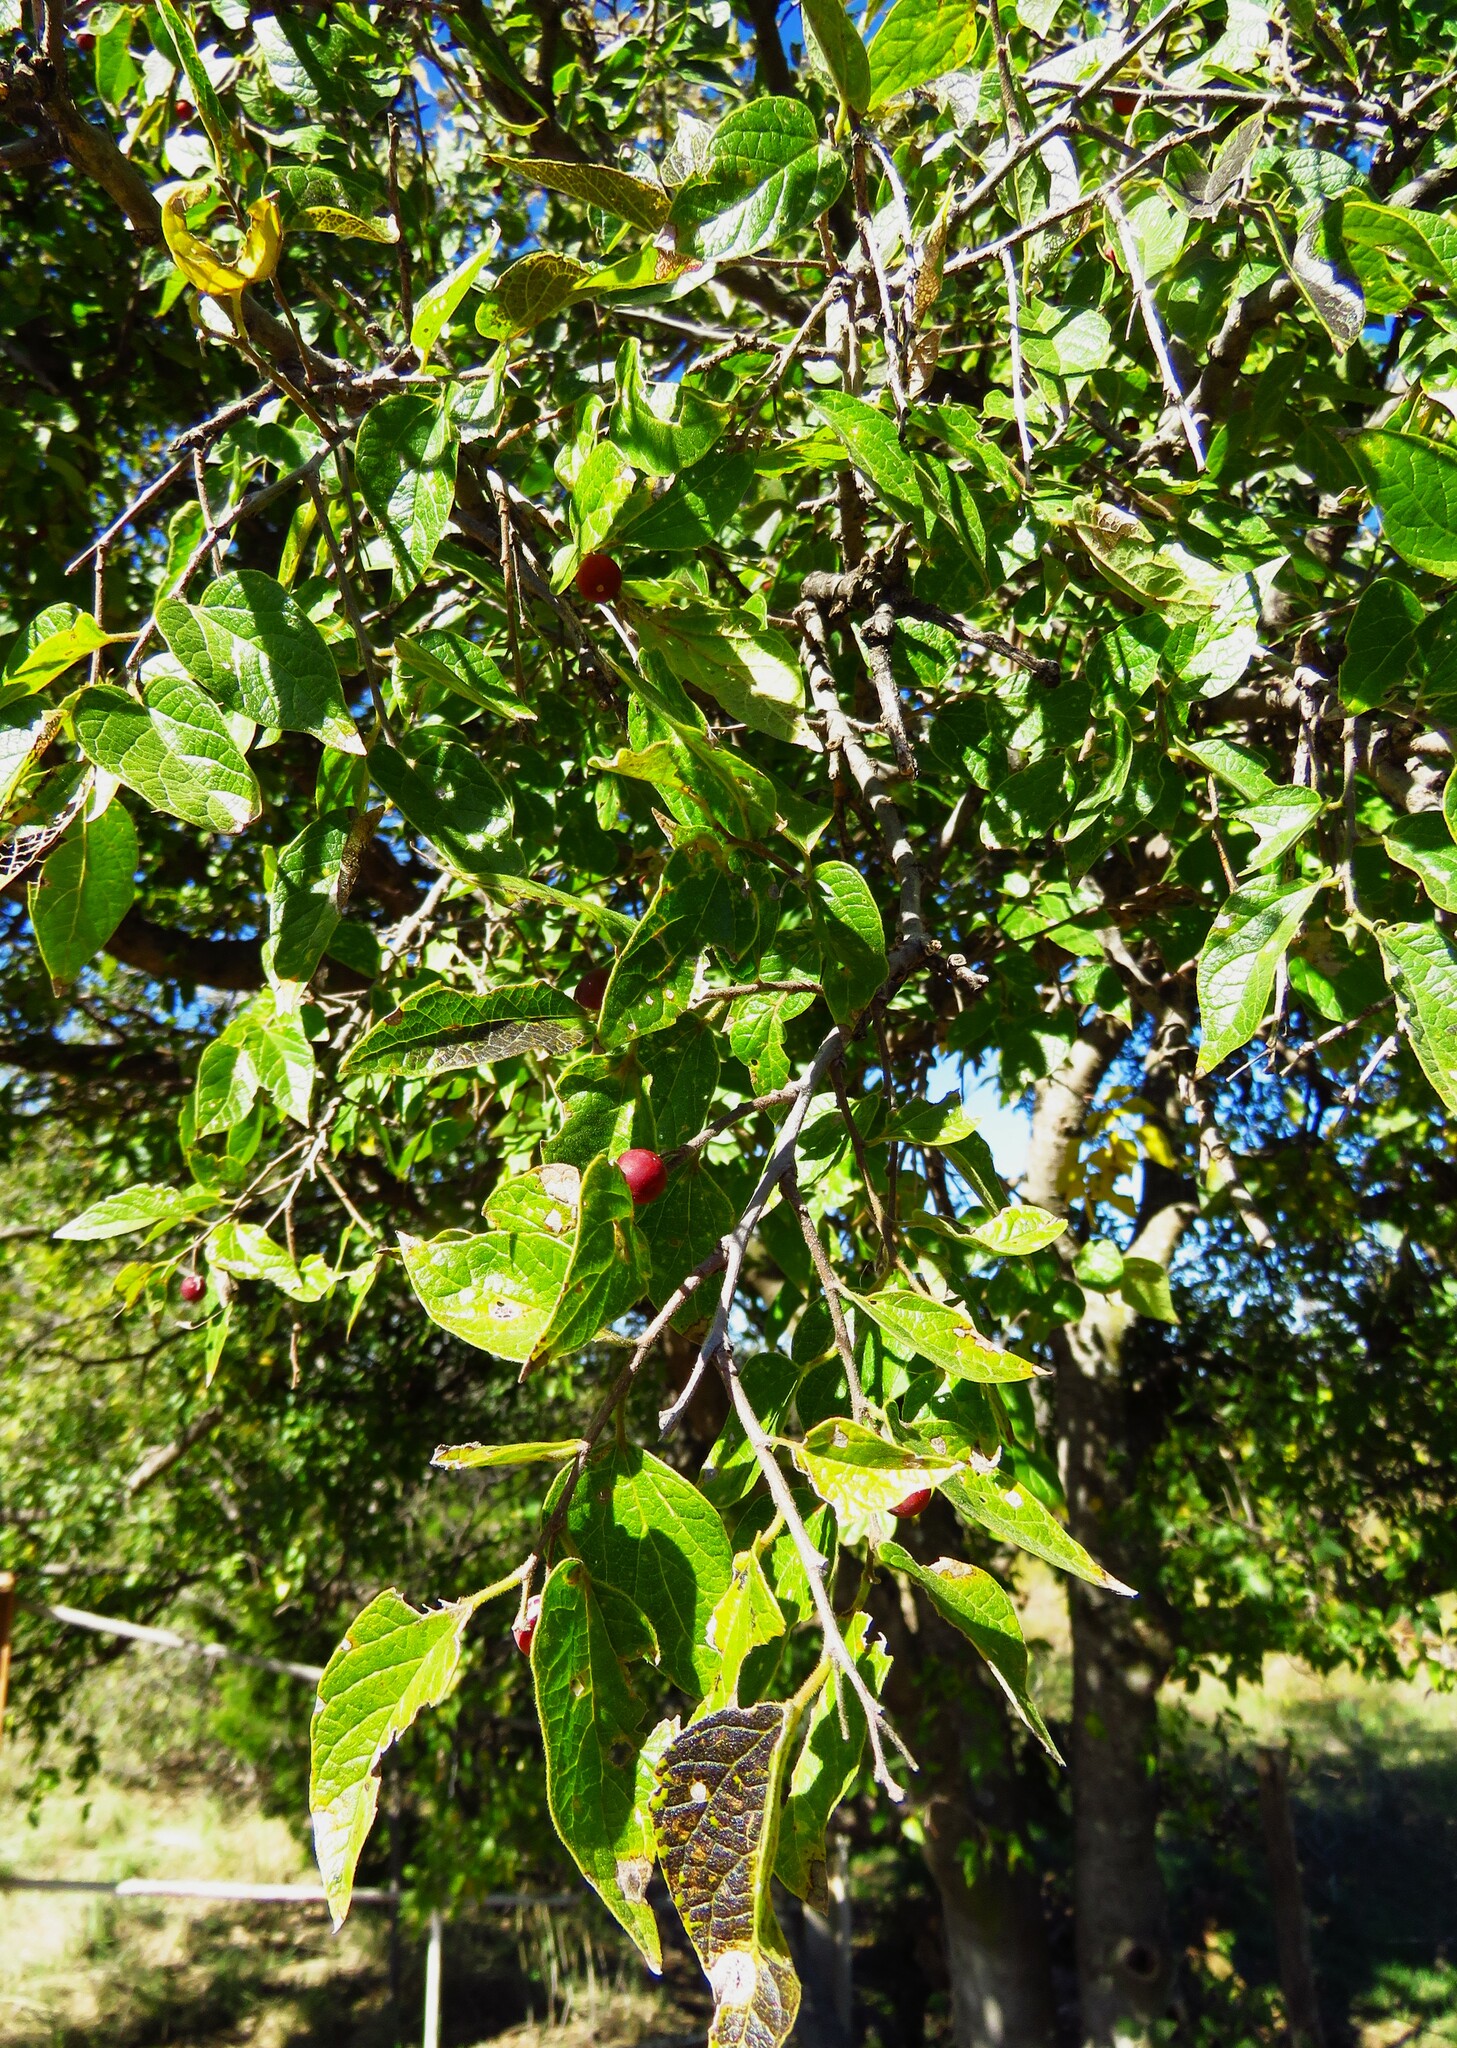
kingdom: Plantae
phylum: Tracheophyta
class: Magnoliopsida
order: Rosales
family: Cannabaceae
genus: Celtis
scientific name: Celtis reticulata
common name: Netleaf hackberry
